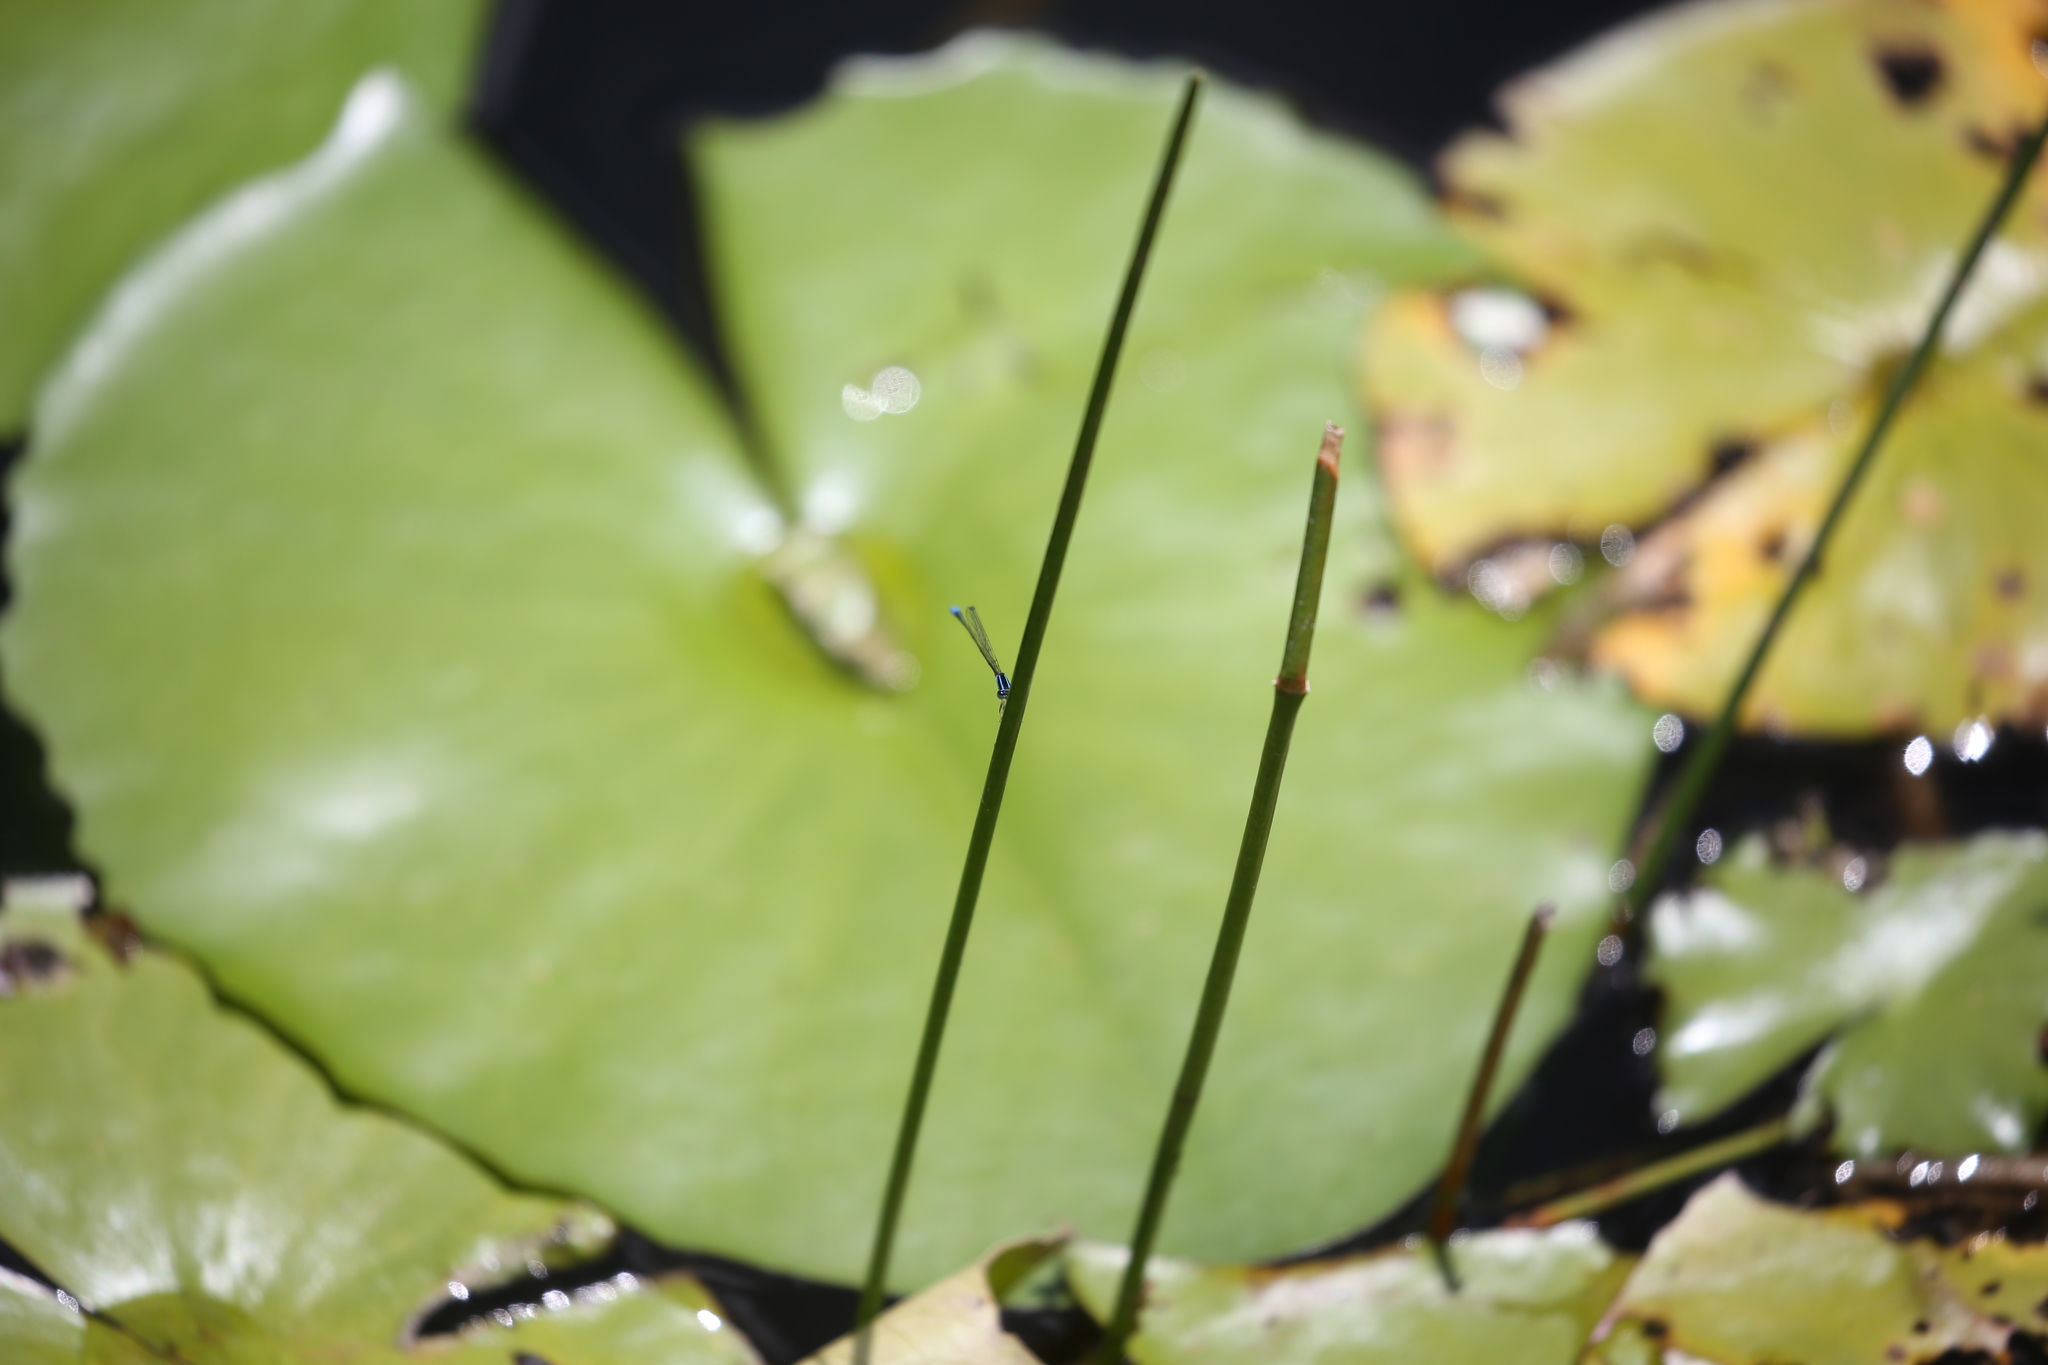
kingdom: Animalia
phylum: Arthropoda
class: Insecta
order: Odonata
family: Coenagrionidae
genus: Aciagrion
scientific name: Aciagrion fragile
